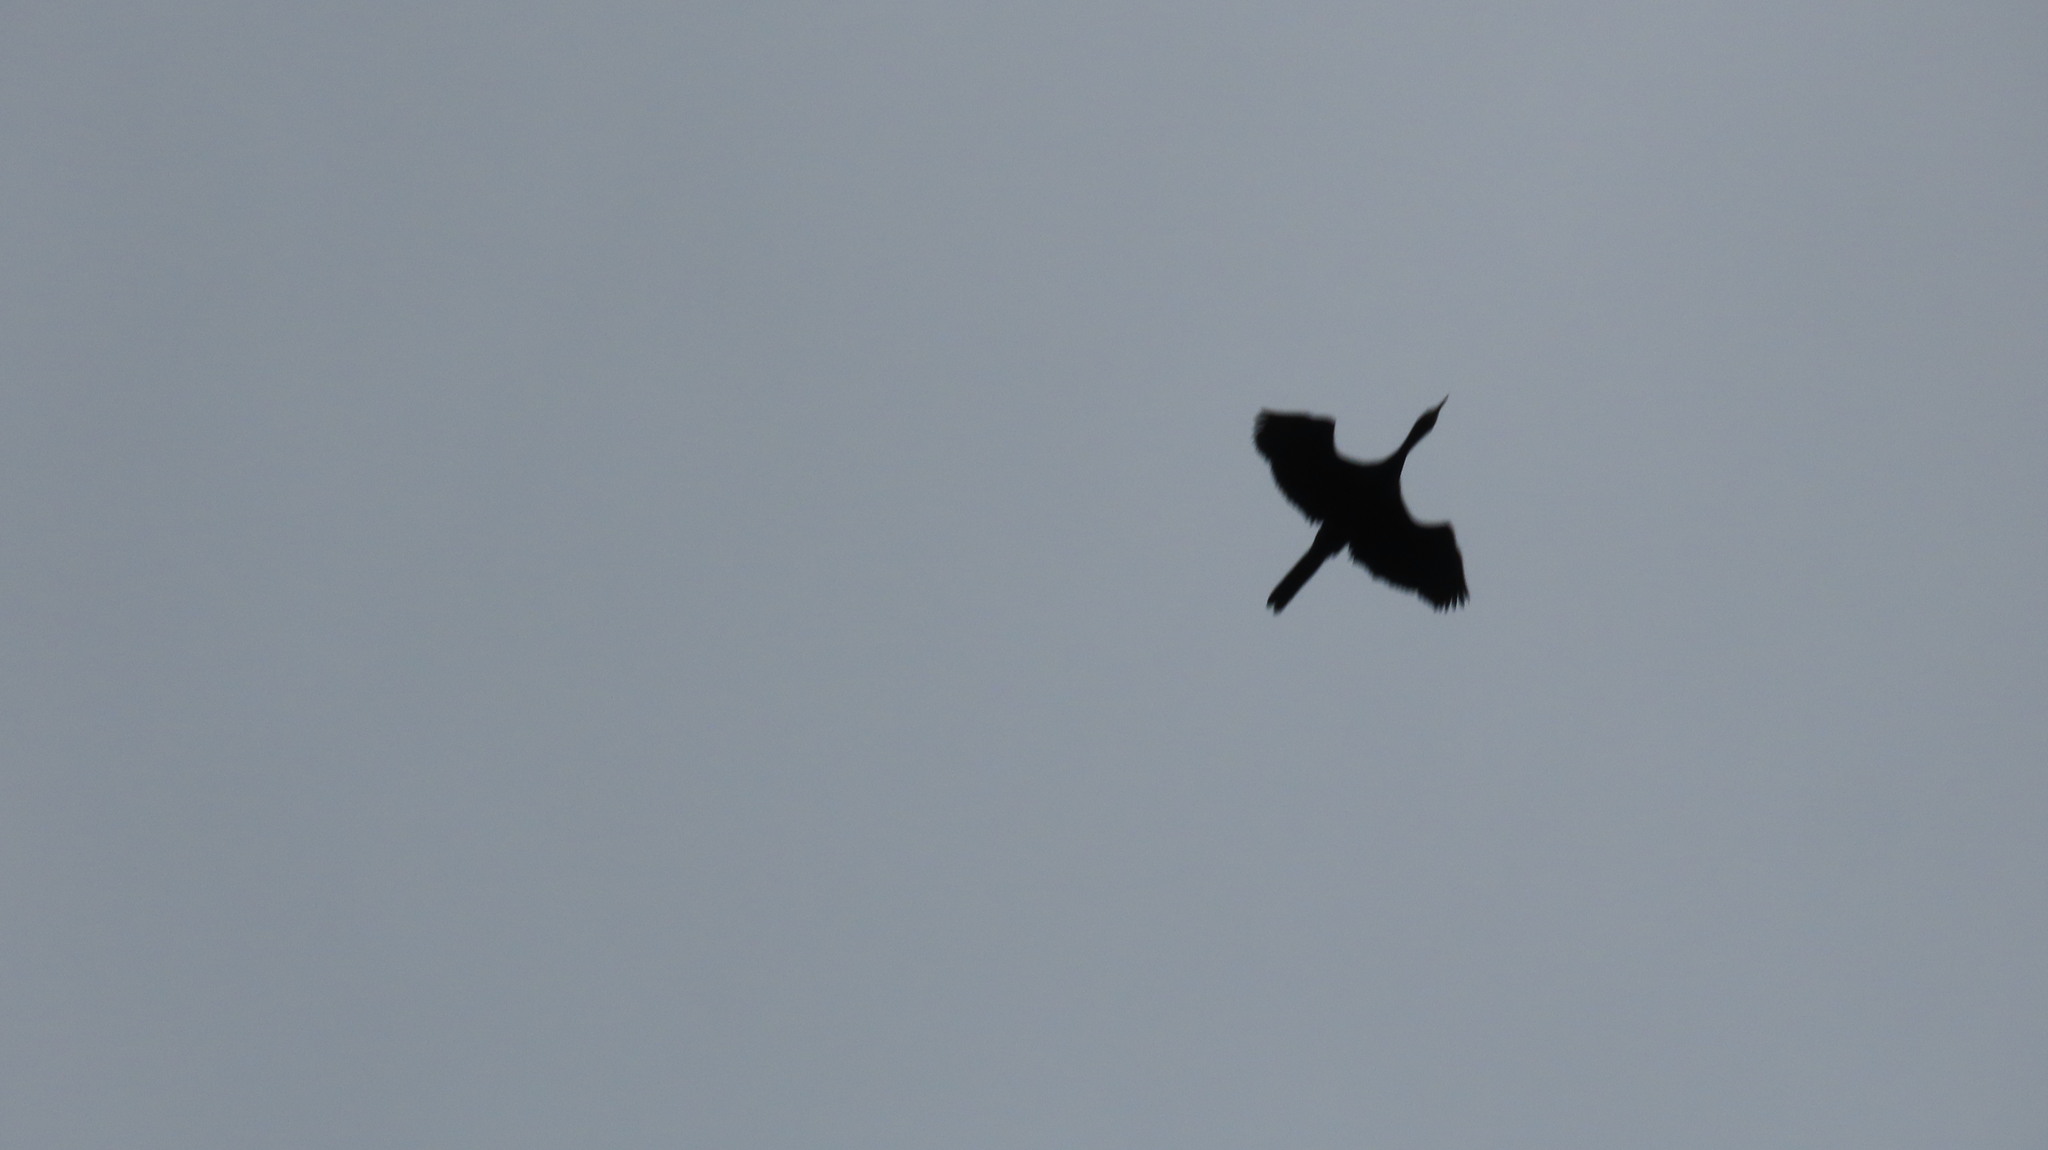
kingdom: Animalia
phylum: Chordata
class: Aves
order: Suliformes
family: Phalacrocoracidae
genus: Microcarbo
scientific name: Microcarbo niger
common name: Little cormorant
